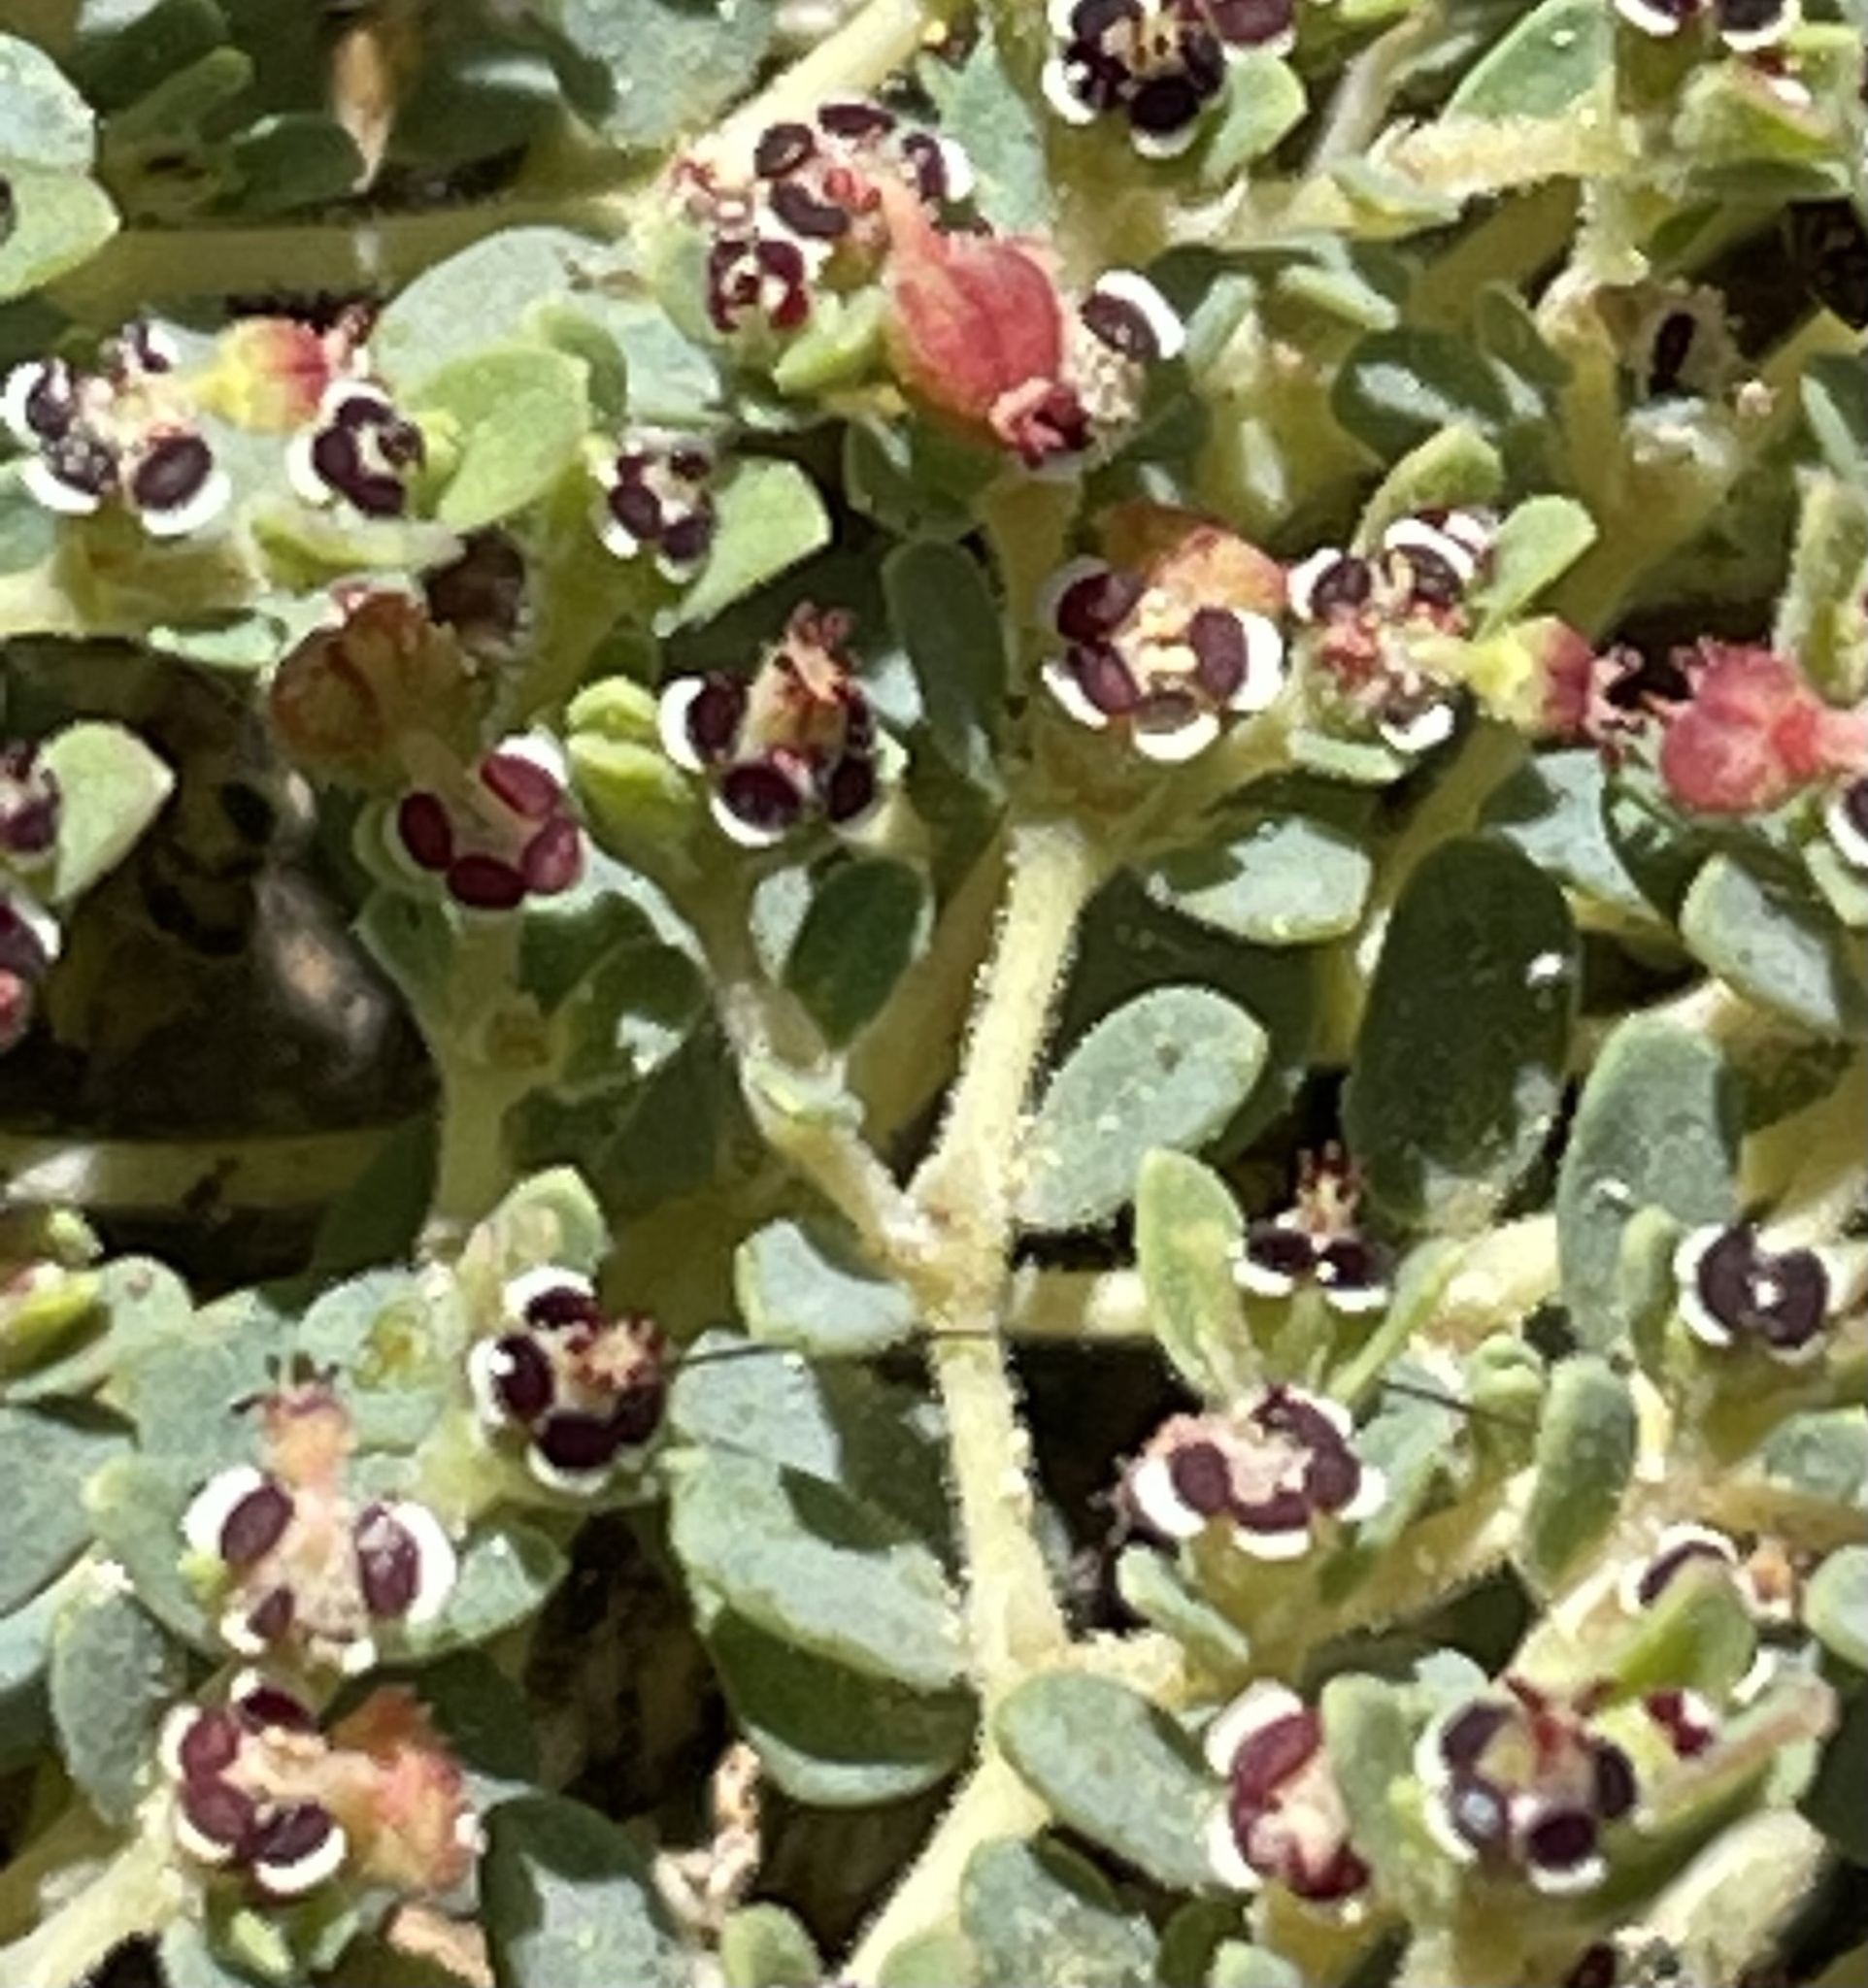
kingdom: Plantae
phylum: Tracheophyta
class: Magnoliopsida
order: Malpighiales
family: Euphorbiaceae
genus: Euphorbia
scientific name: Euphorbia polycarpa
